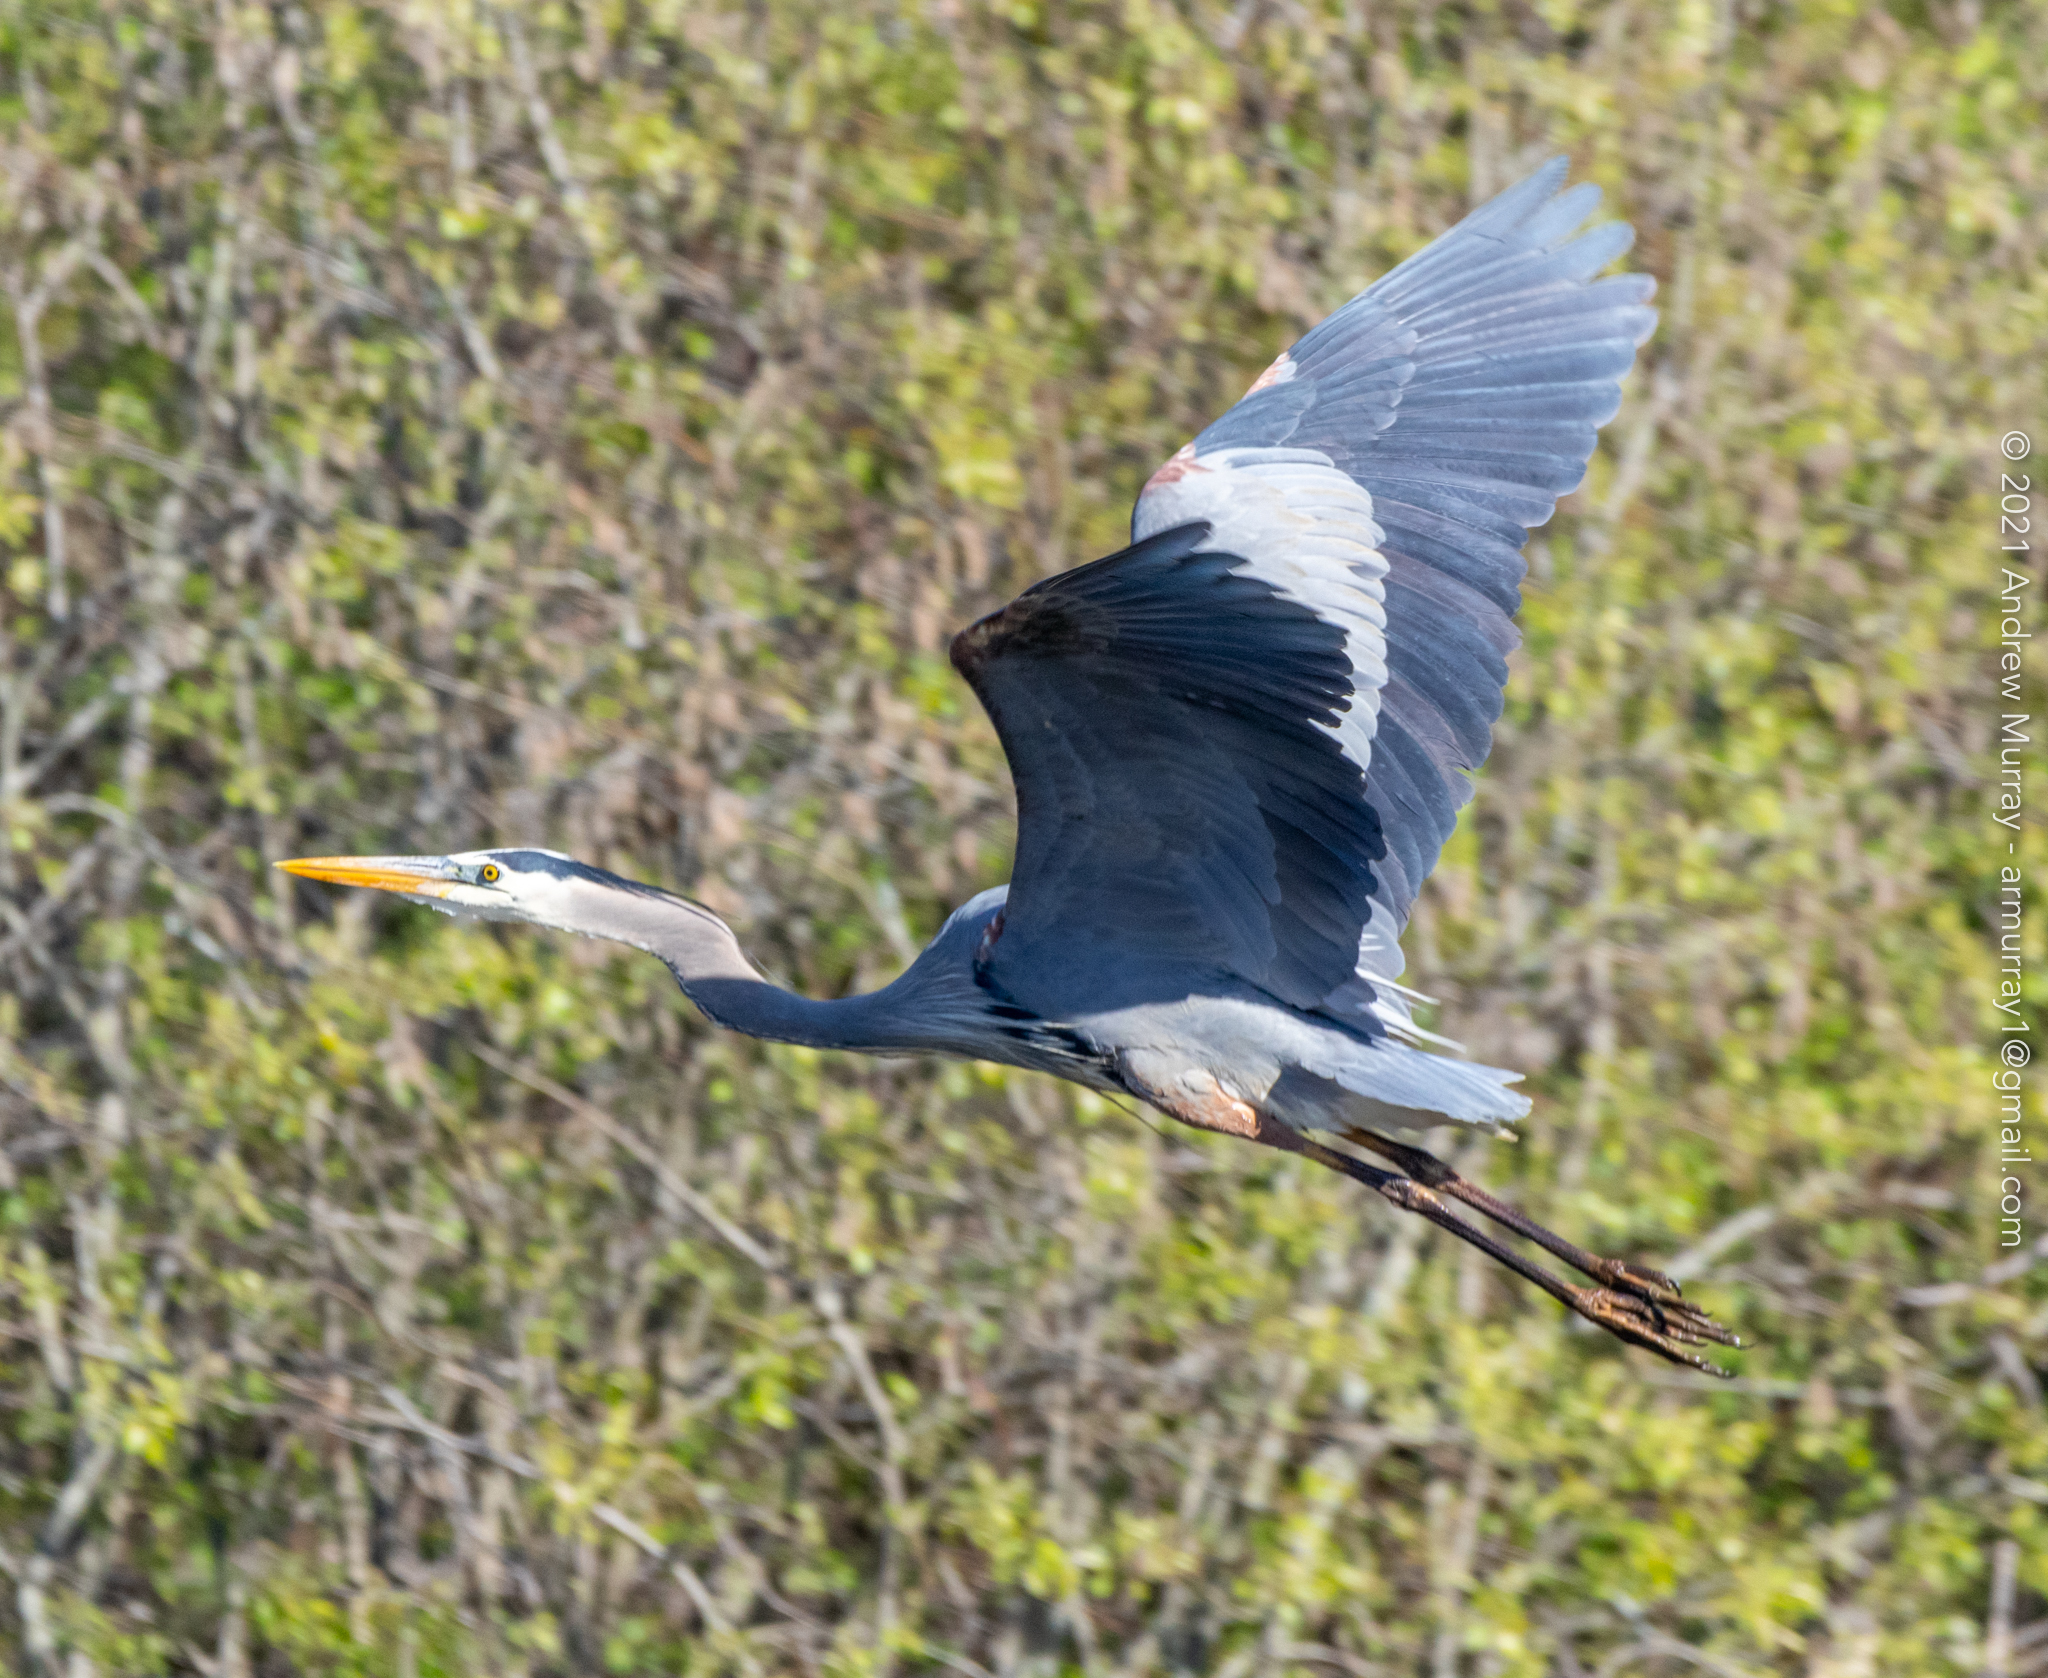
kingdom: Animalia
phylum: Chordata
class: Aves
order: Pelecaniformes
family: Ardeidae
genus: Ardea
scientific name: Ardea herodias
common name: Great blue heron
